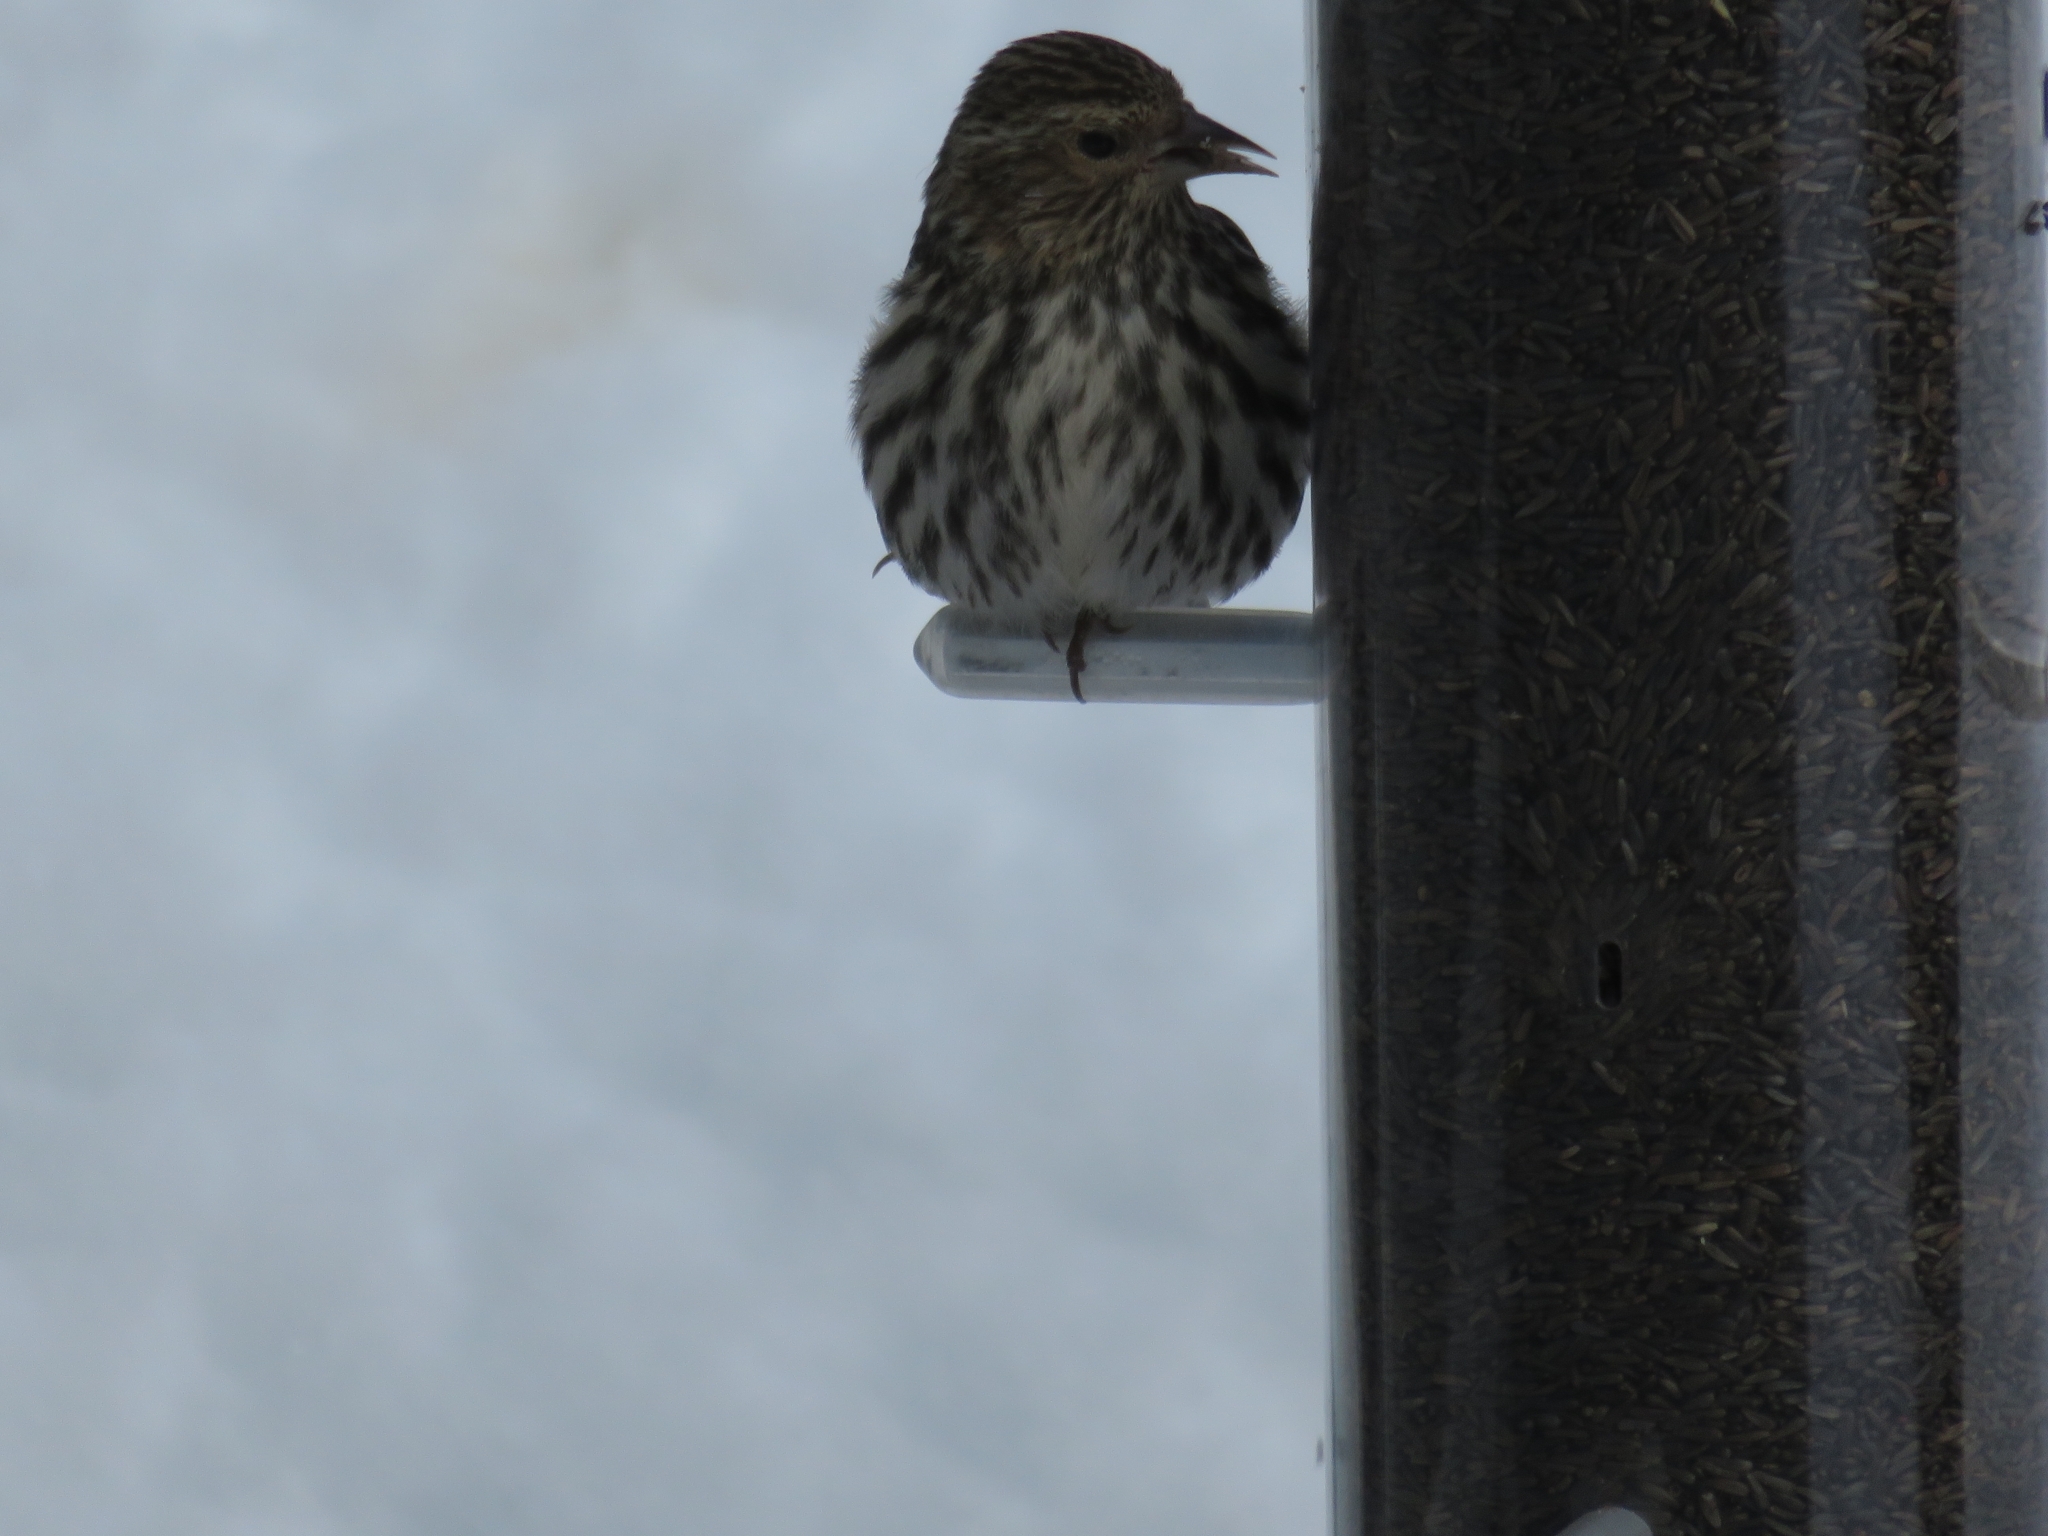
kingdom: Animalia
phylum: Chordata
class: Aves
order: Passeriformes
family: Fringillidae
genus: Spinus
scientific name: Spinus pinus
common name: Pine siskin
